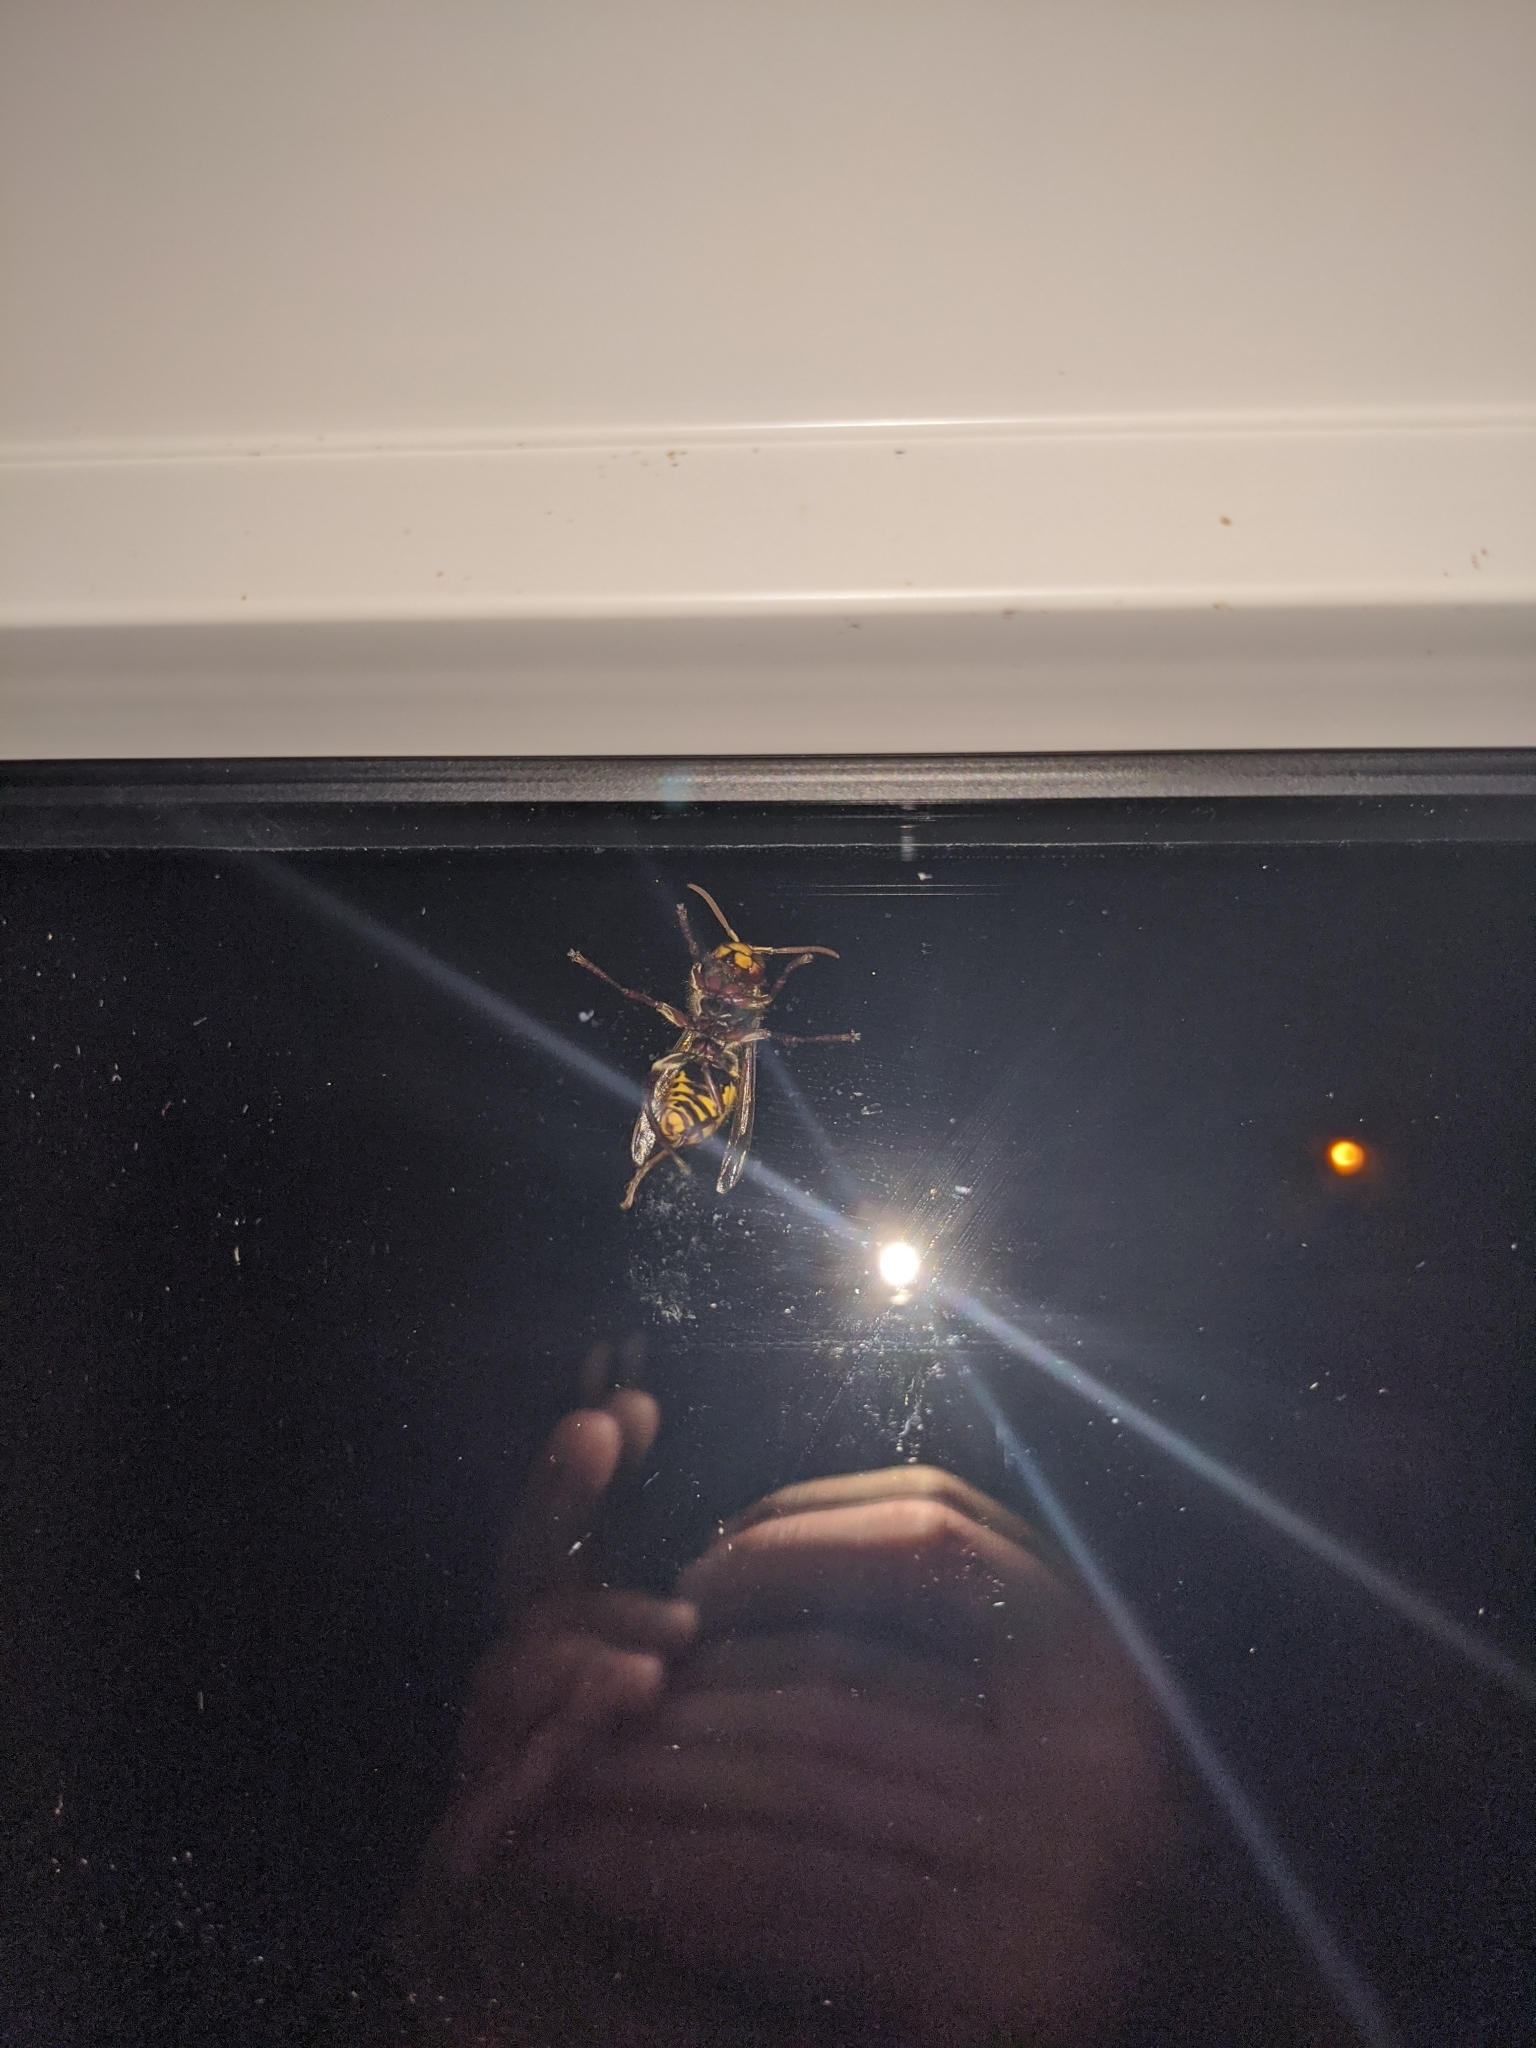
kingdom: Animalia
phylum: Arthropoda
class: Insecta
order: Hymenoptera
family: Vespidae
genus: Vespa
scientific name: Vespa crabro
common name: Hornet
